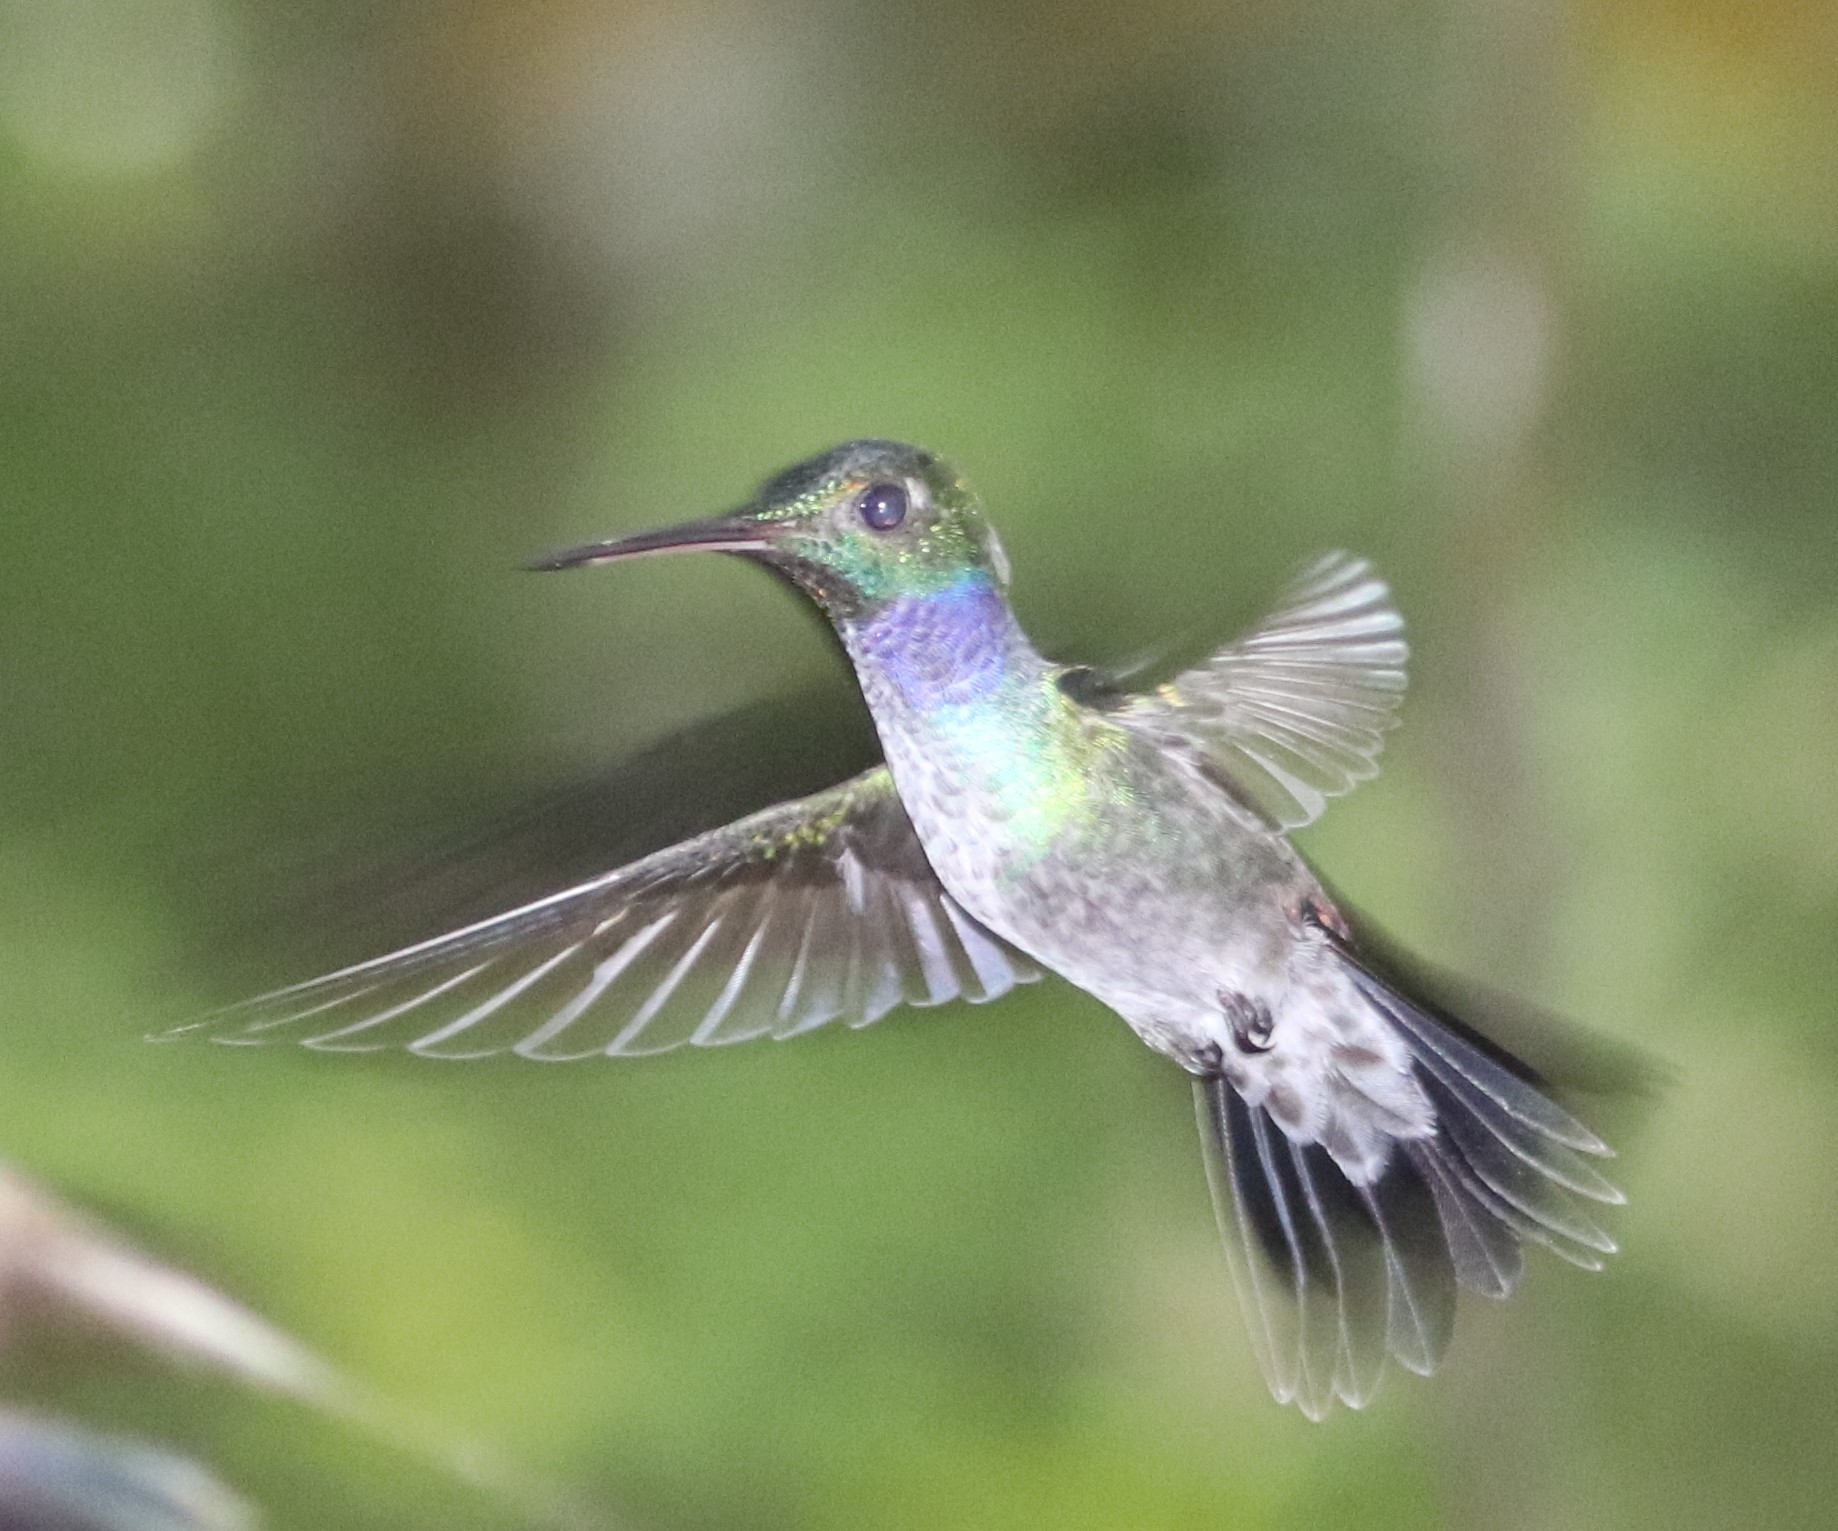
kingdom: Animalia
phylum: Chordata
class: Aves
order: Apodiformes
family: Trochilidae
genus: Polyerata
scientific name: Polyerata amabilis
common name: Blue-chested hummingbird
